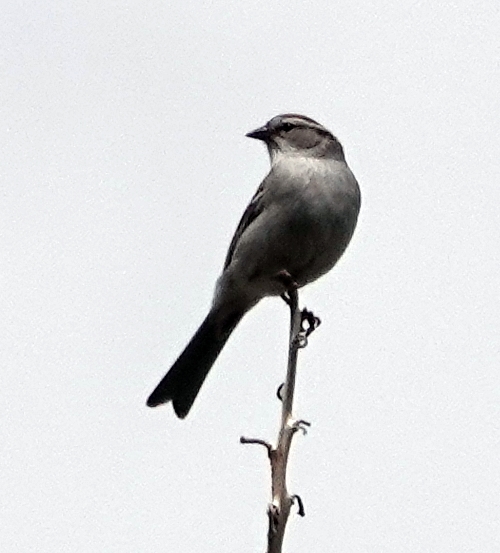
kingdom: Animalia
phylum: Chordata
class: Aves
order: Passeriformes
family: Passerellidae
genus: Spizella
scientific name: Spizella passerina
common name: Chipping sparrow
